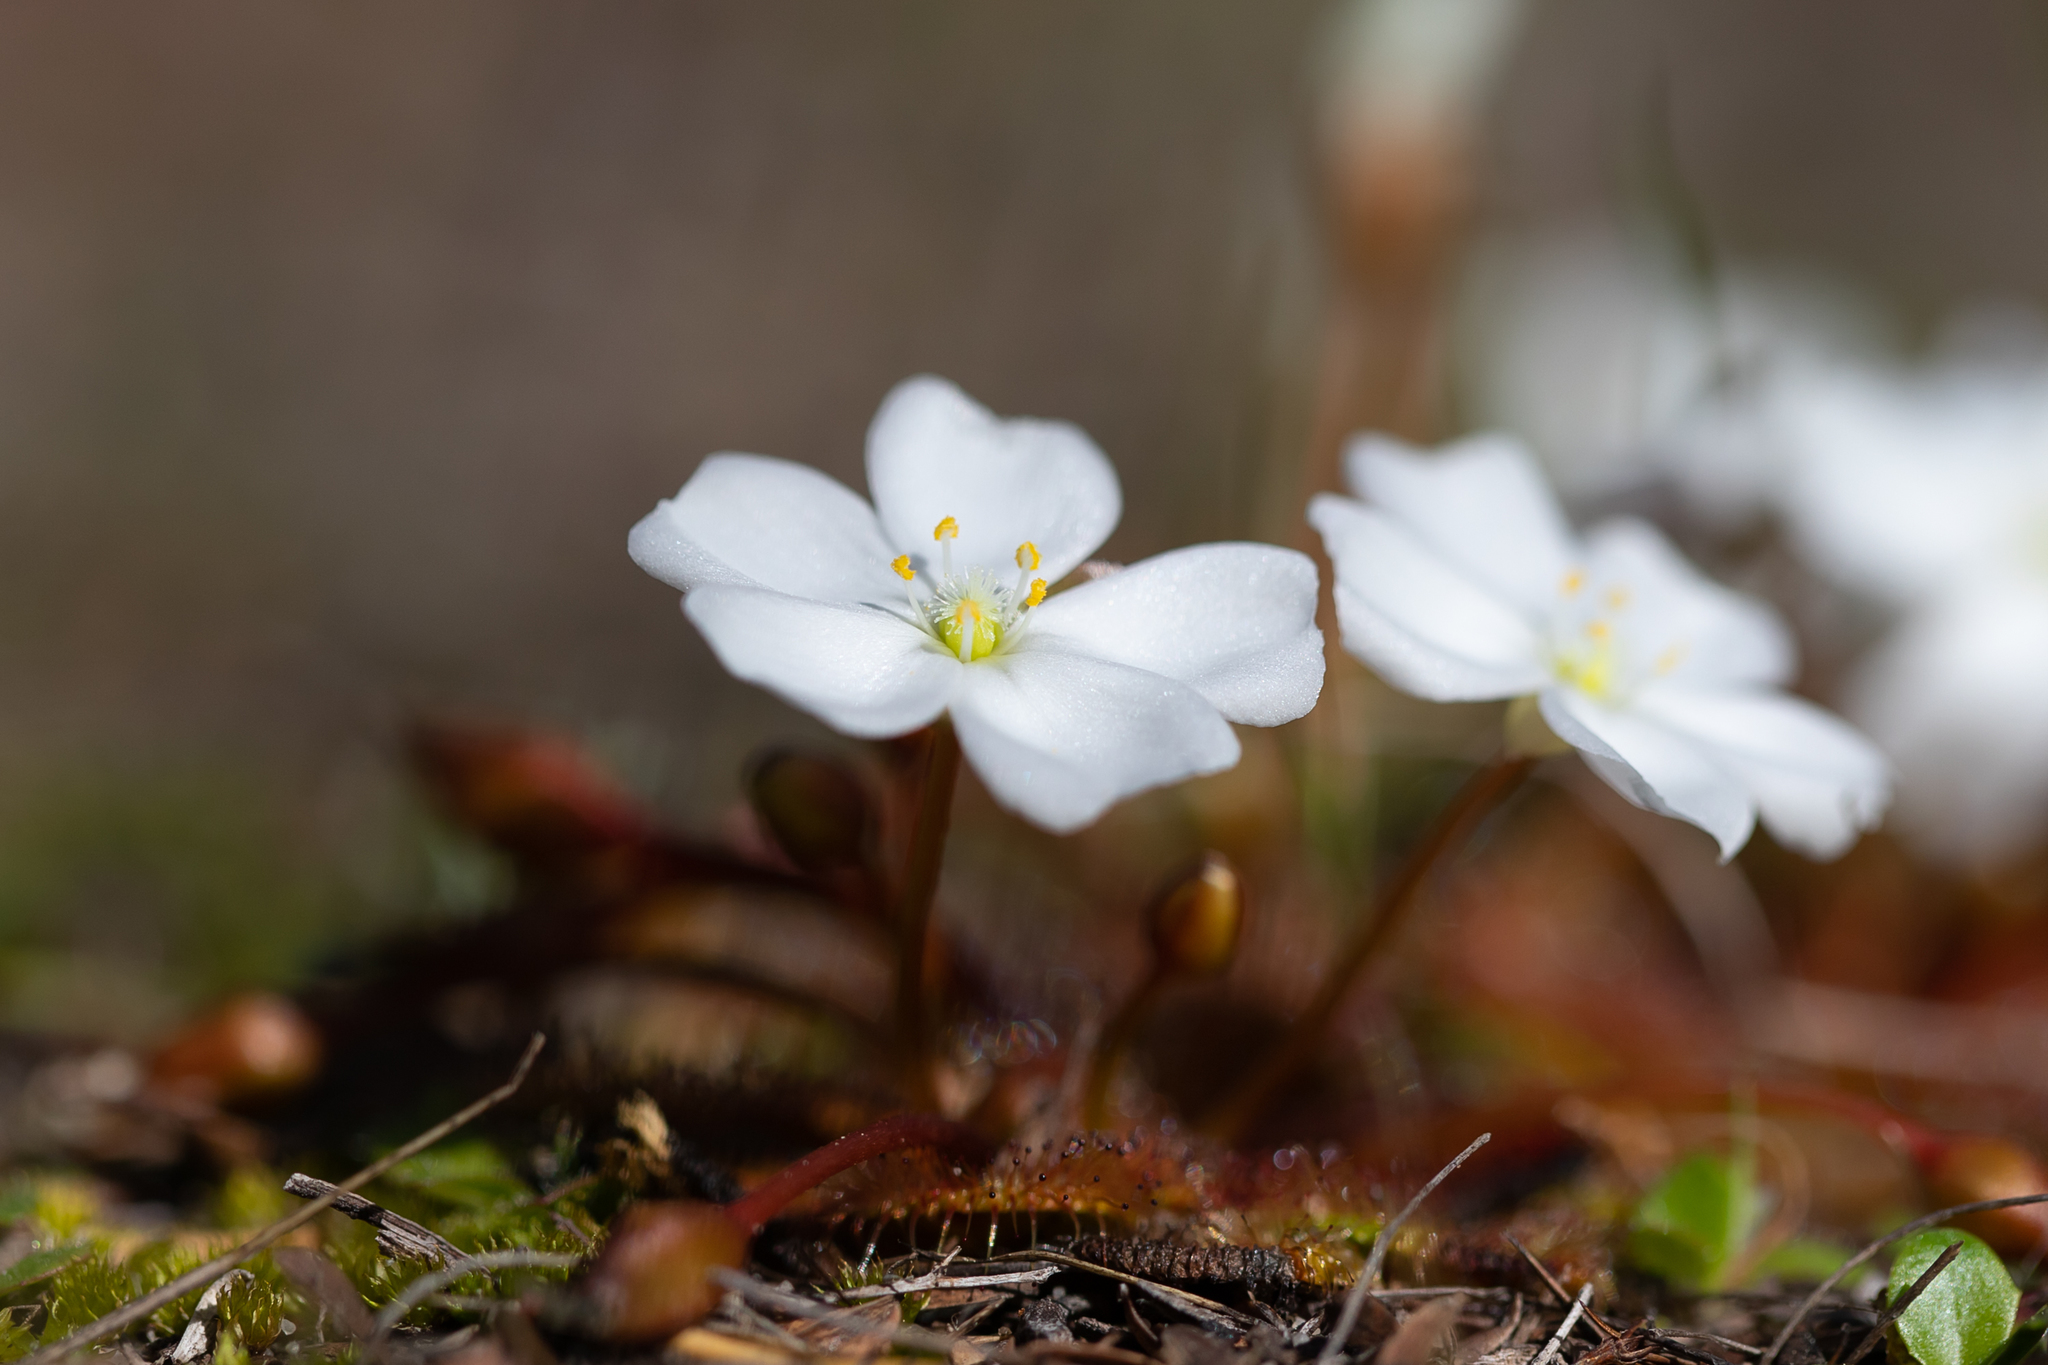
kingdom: Plantae
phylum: Tracheophyta
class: Magnoliopsida
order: Caryophyllales
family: Droseraceae
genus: Drosera
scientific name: Drosera whittakeri
